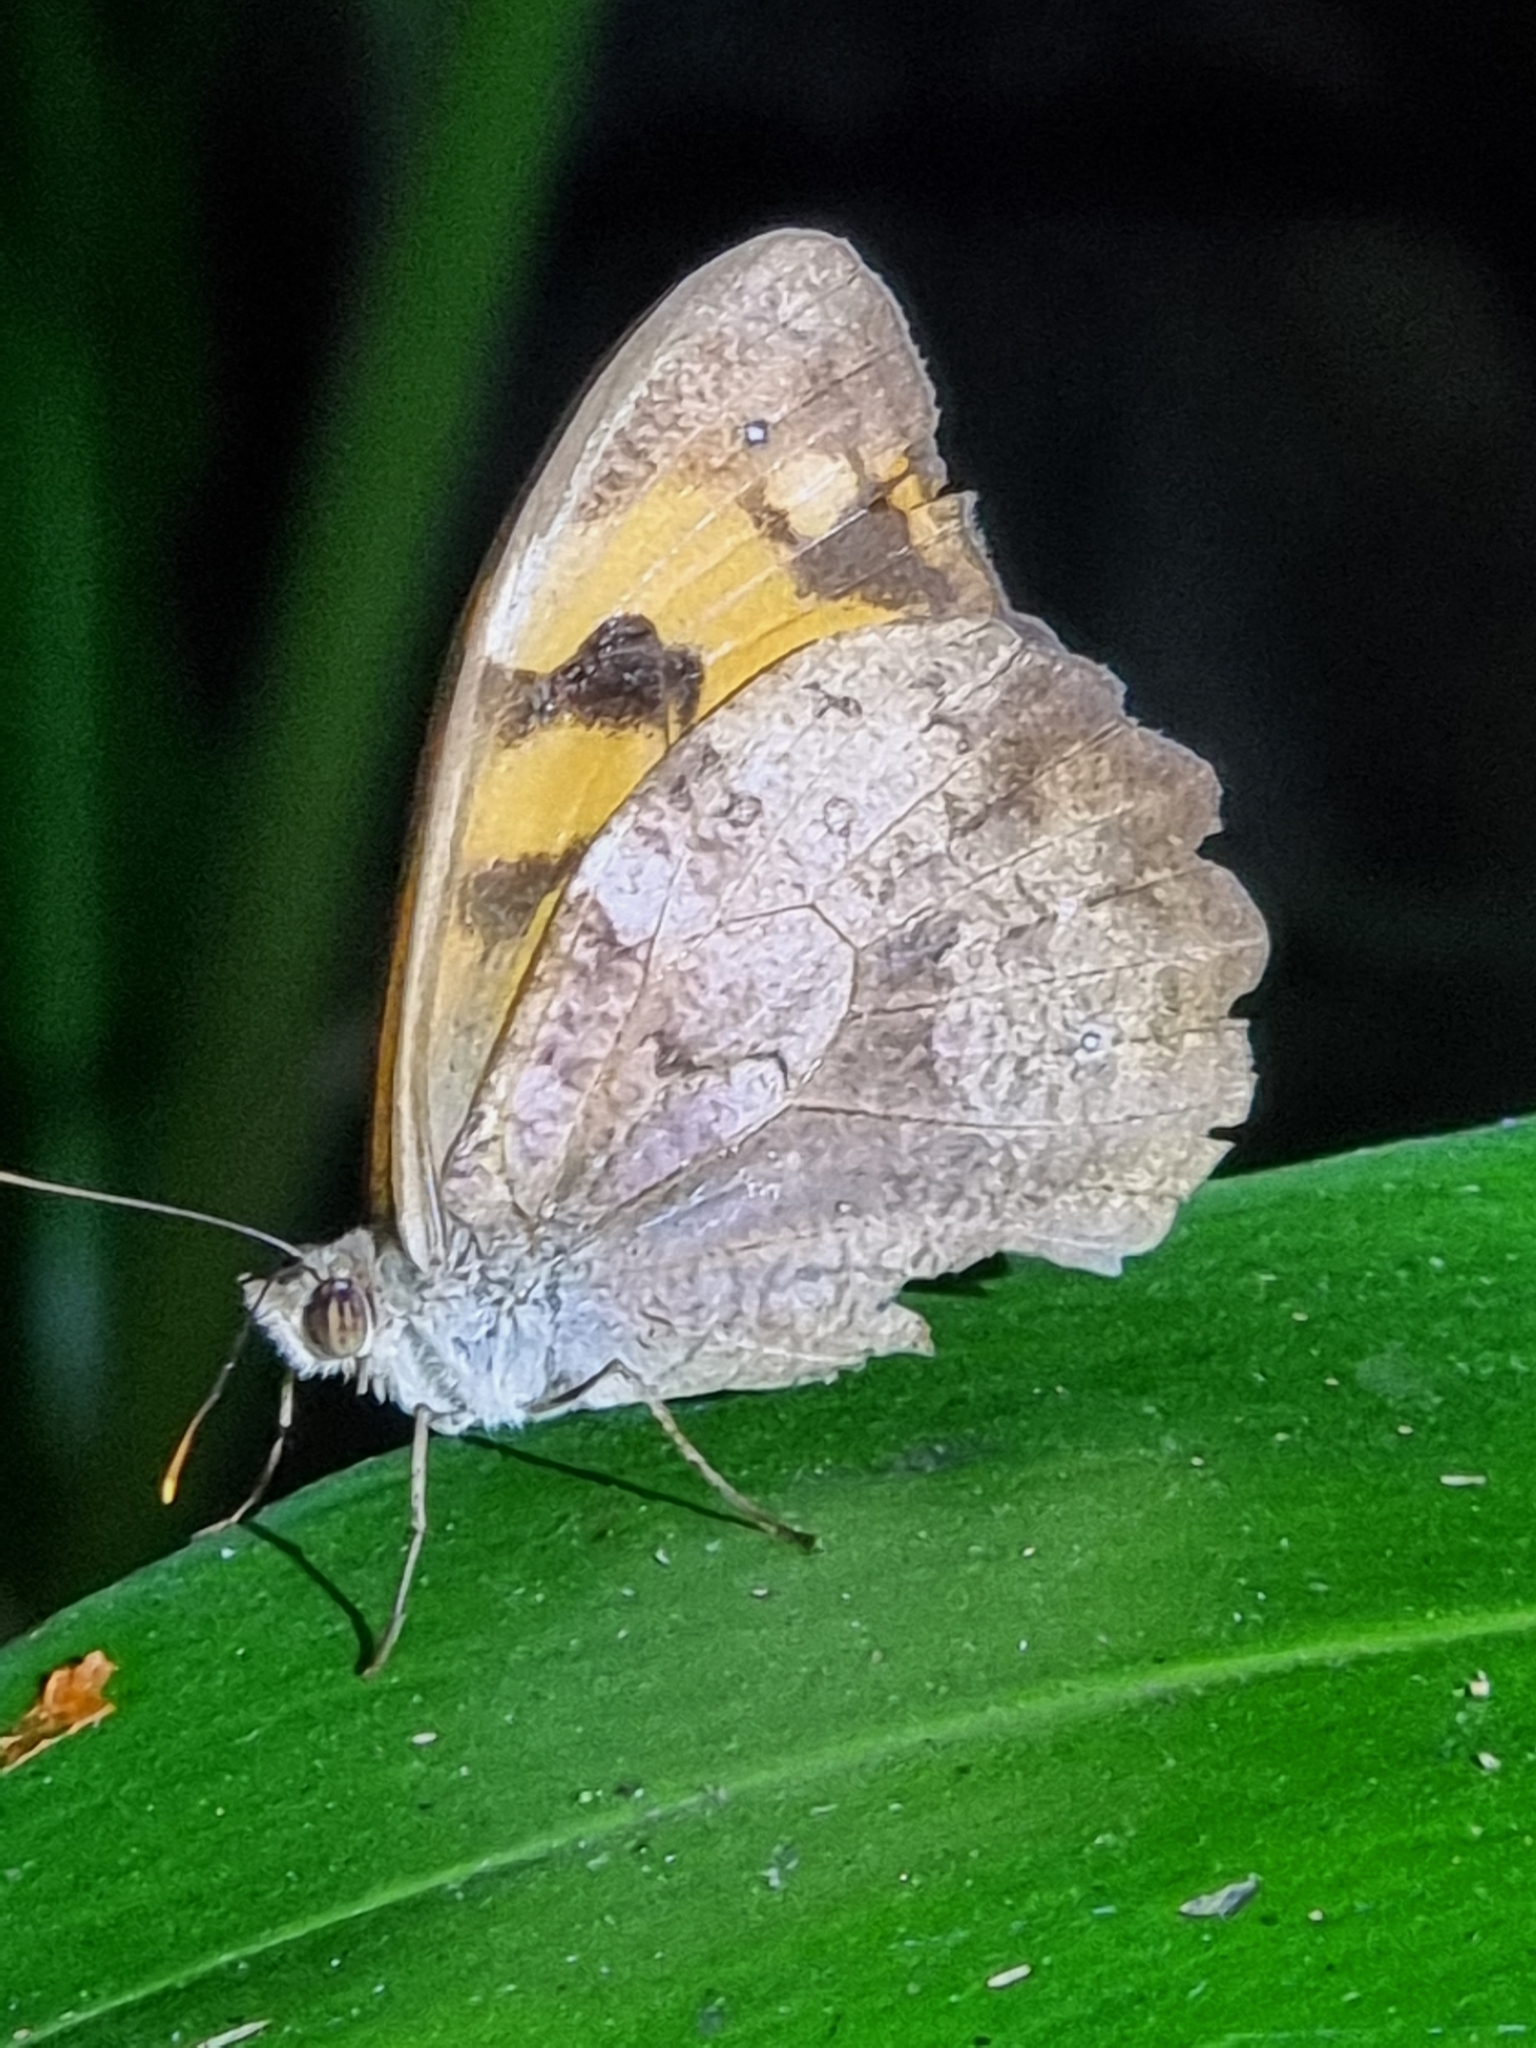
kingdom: Animalia
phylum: Arthropoda
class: Insecta
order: Lepidoptera
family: Nymphalidae
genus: Heteronympha
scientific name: Heteronympha mirifica
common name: Wonder brown
